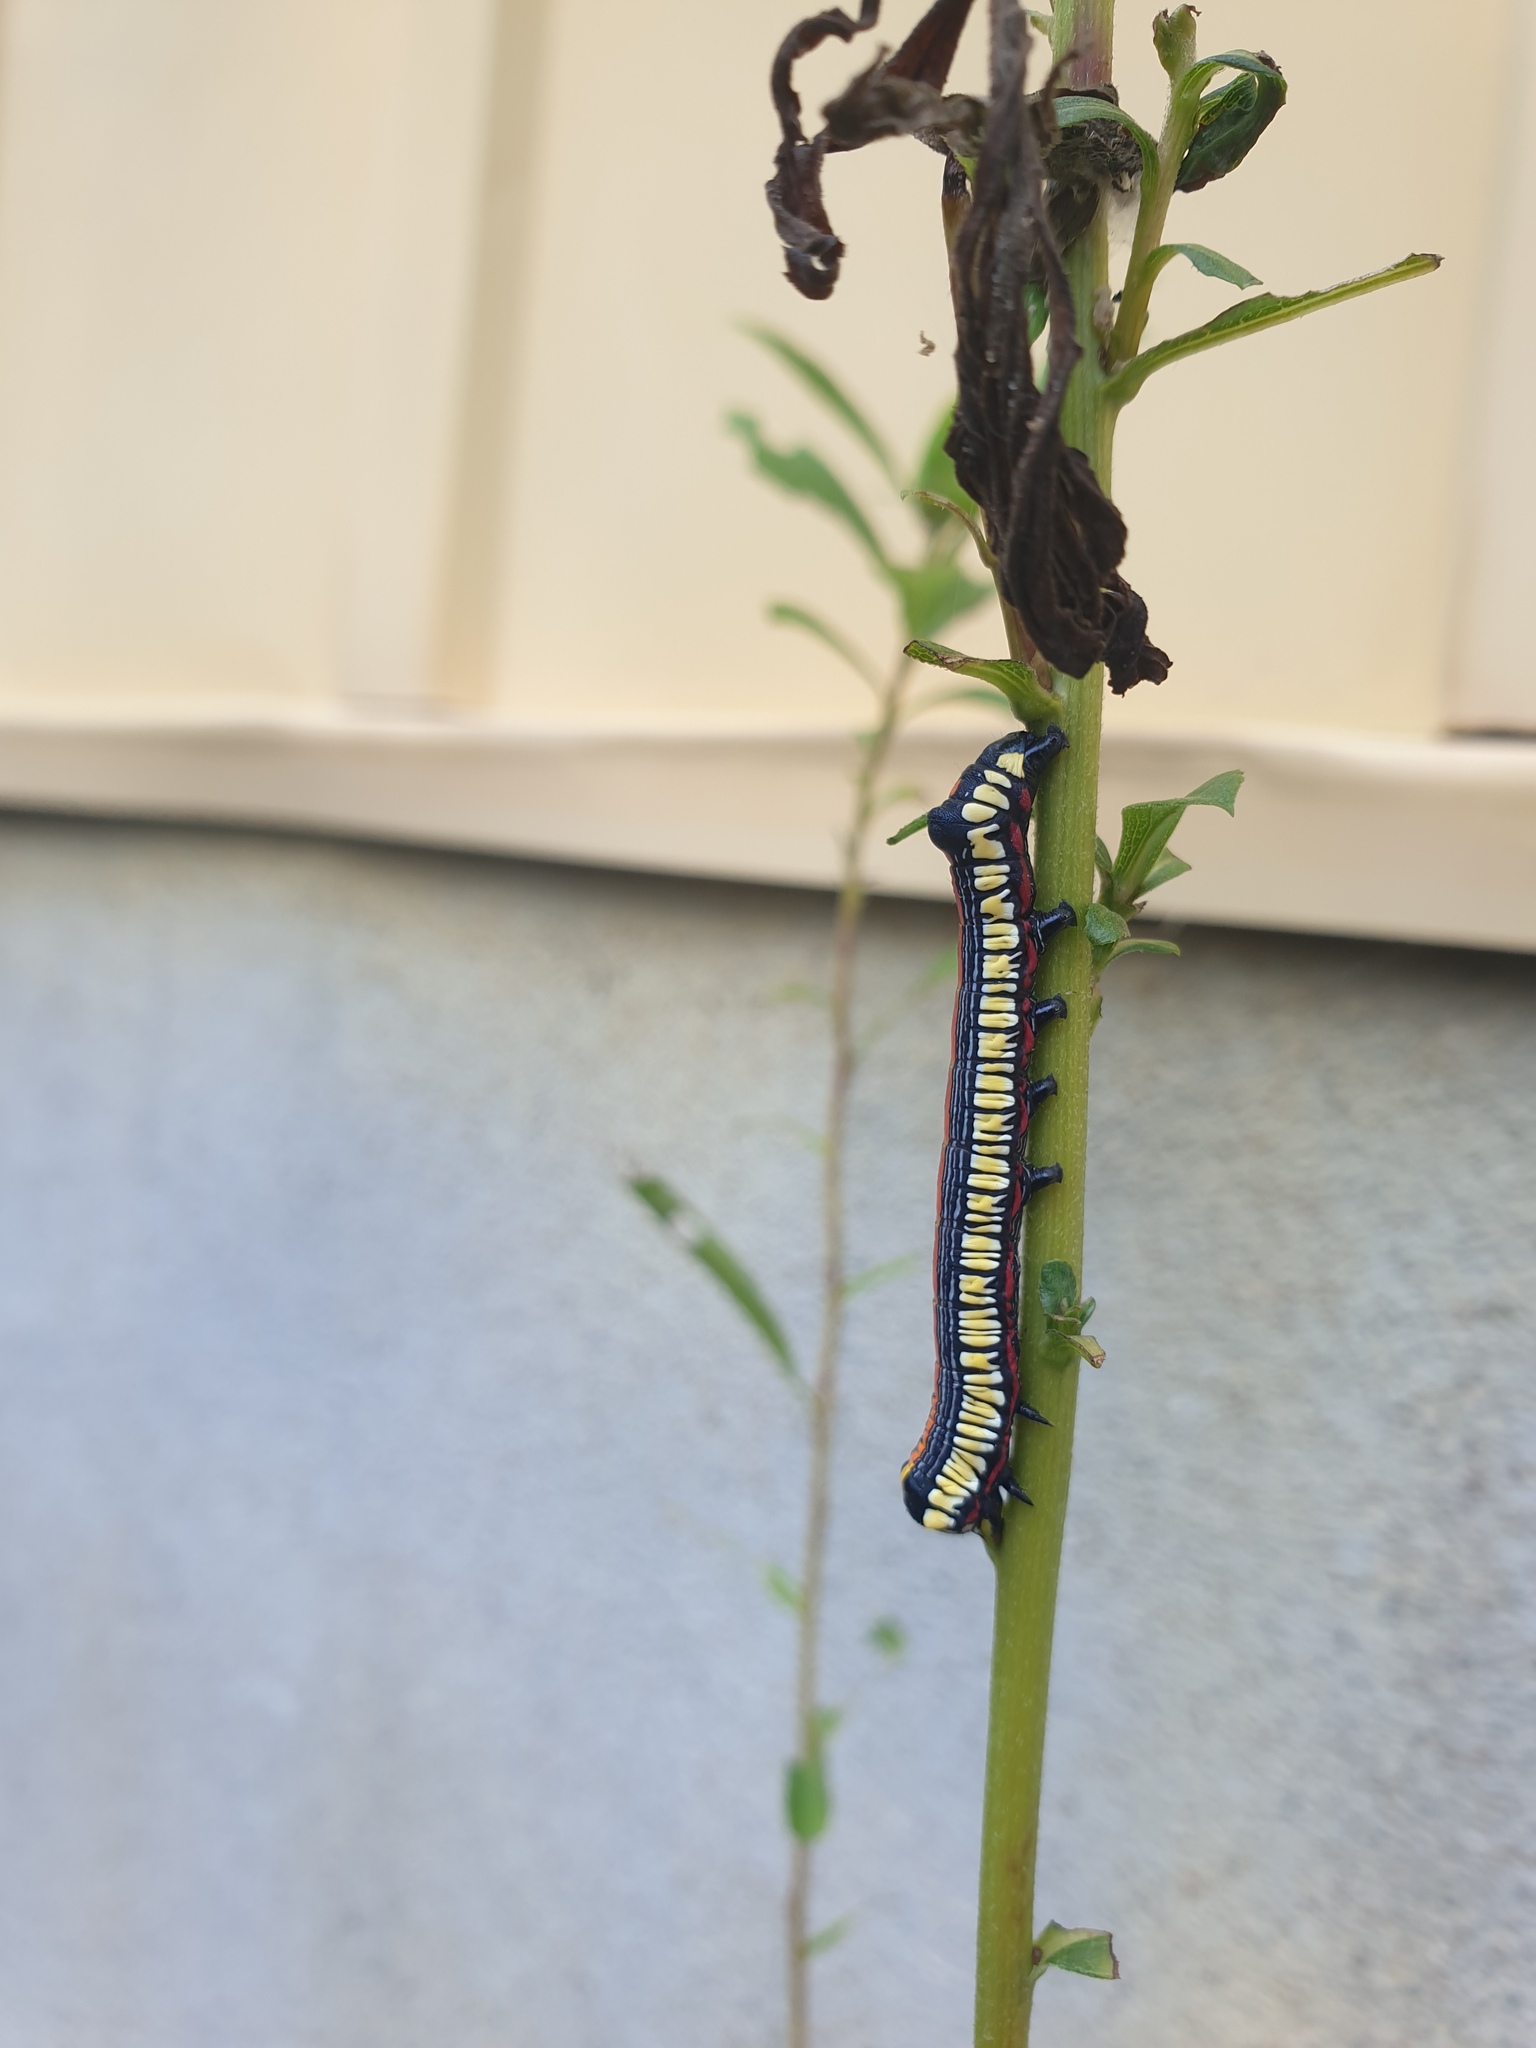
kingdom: Animalia
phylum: Arthropoda
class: Insecta
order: Lepidoptera
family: Noctuidae
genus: Cucullia
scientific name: Cucullia convexipennis
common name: Brown-hooded owlet
